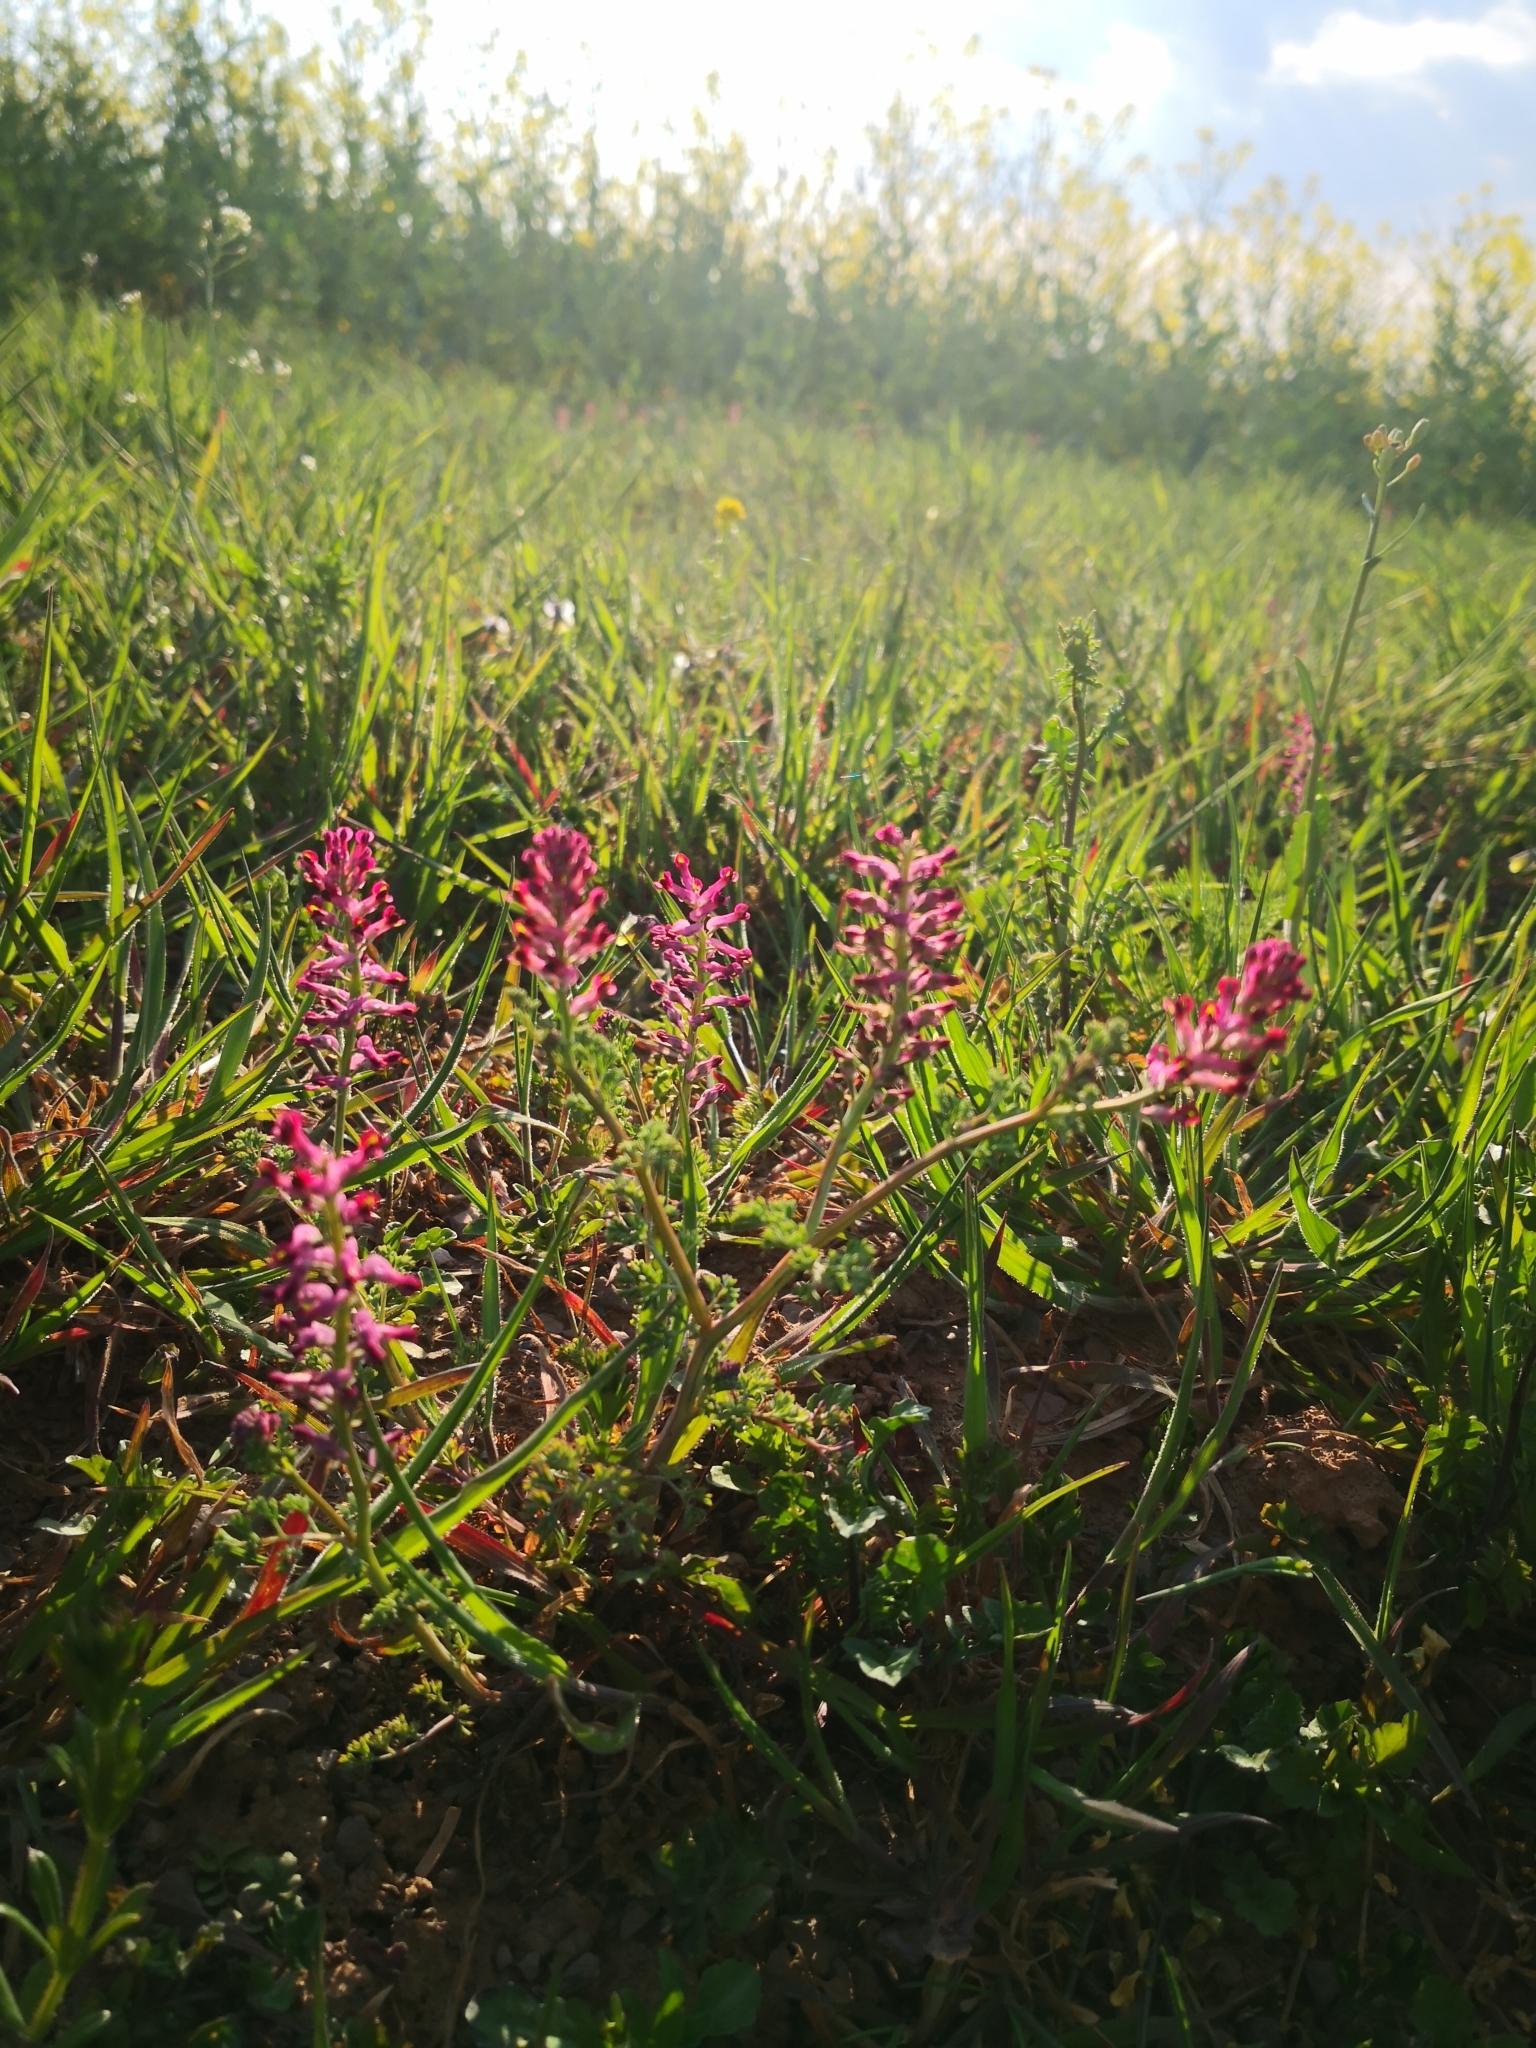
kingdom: Plantae
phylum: Tracheophyta
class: Magnoliopsida
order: Ranunculales
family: Papaveraceae
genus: Fumaria
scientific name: Fumaria officinalis
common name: Common fumitory
